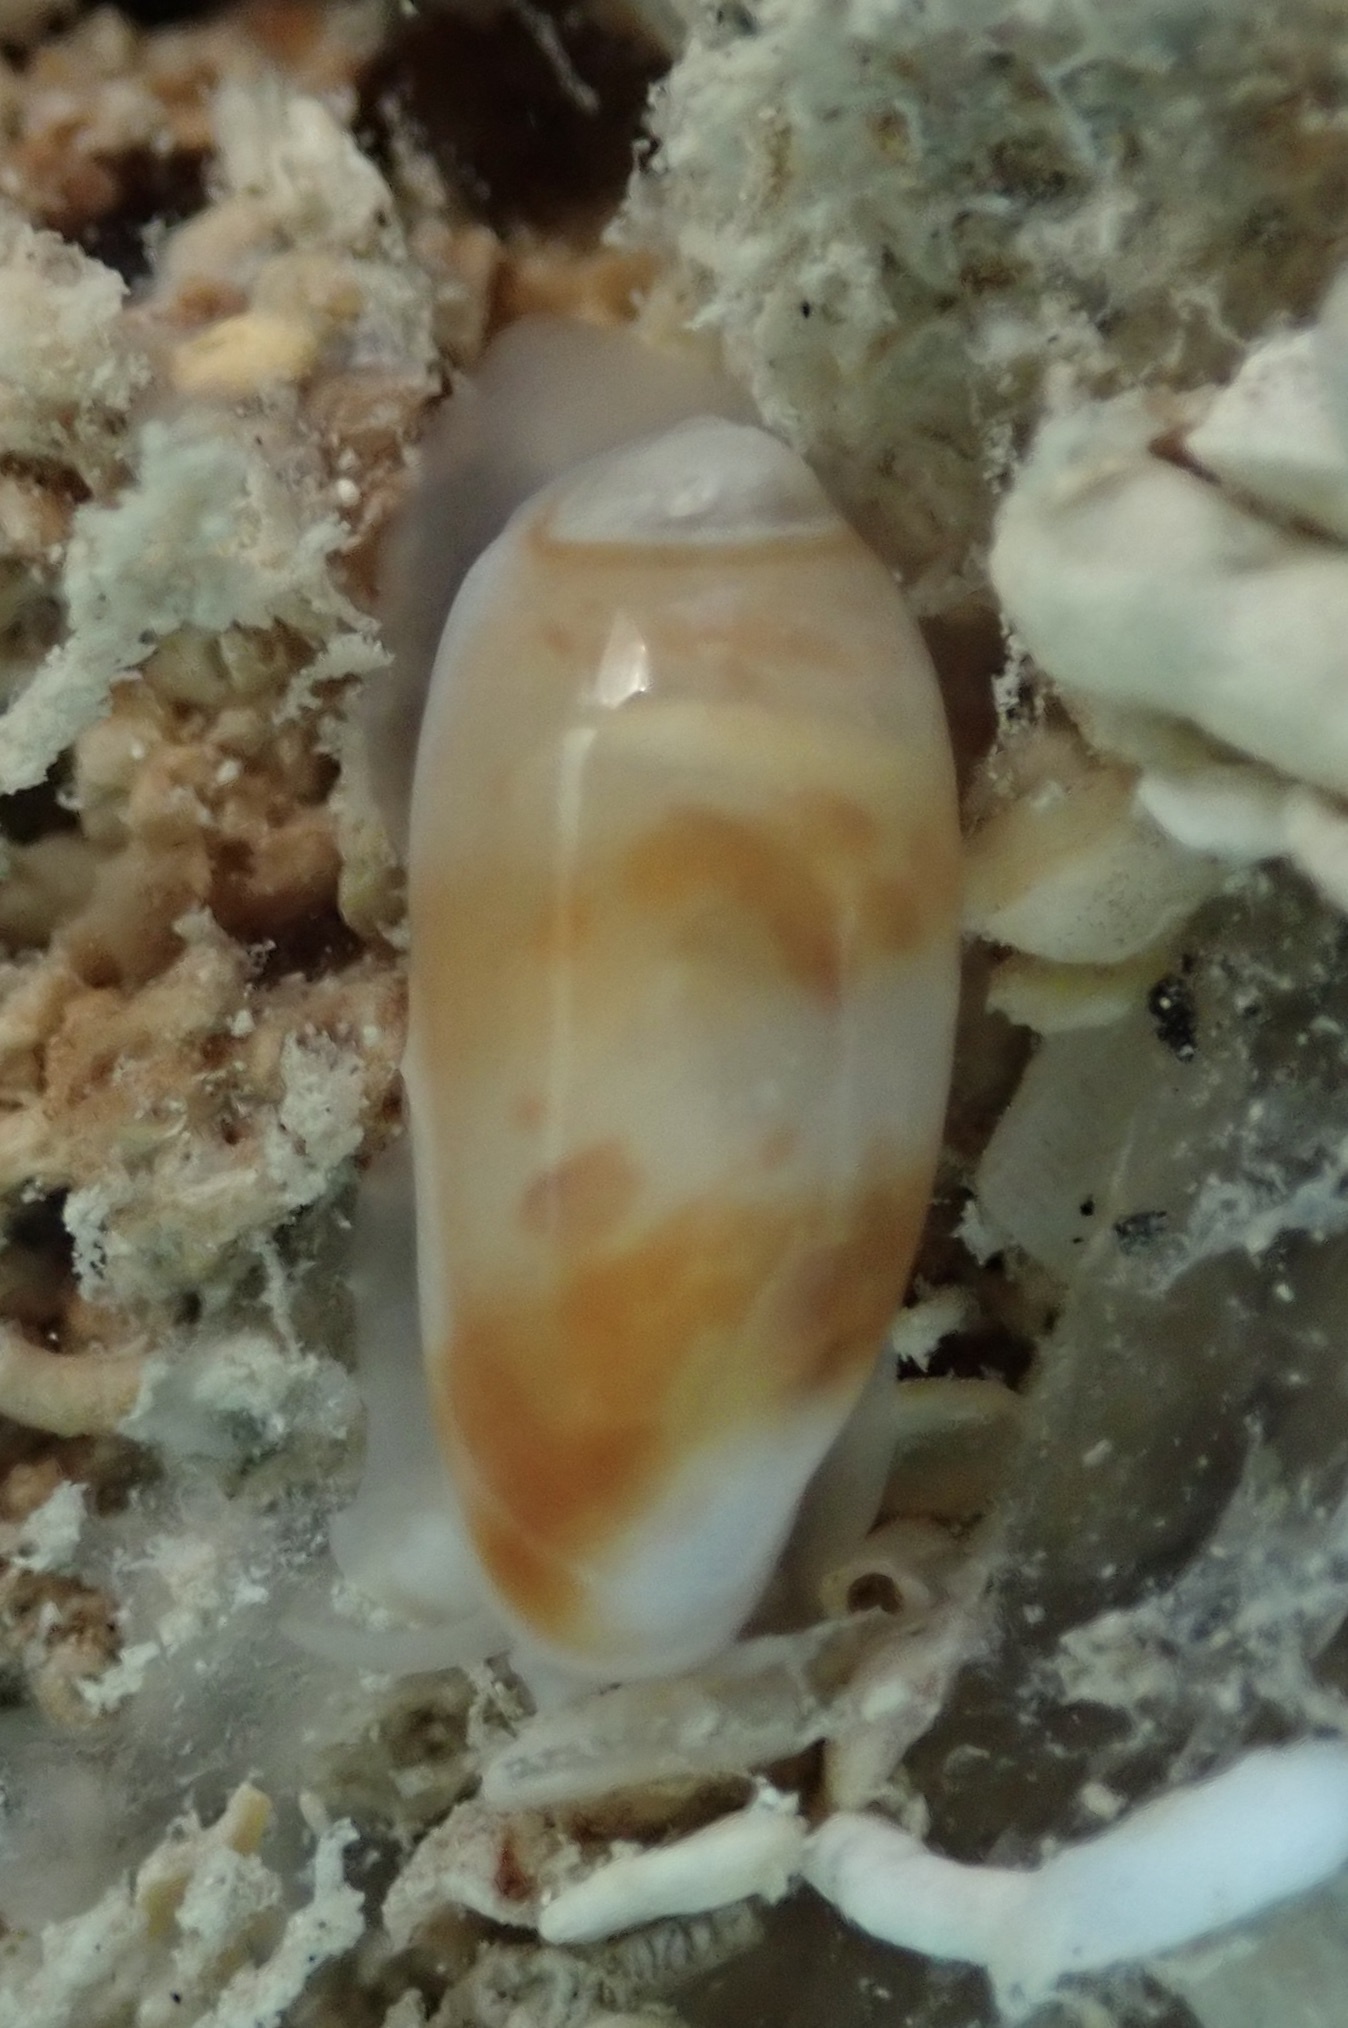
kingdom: Animalia
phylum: Mollusca
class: Gastropoda
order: Neogastropoda
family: Marginellidae
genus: Volvarina
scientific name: Volvarina albolineata
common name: White-line marginella
